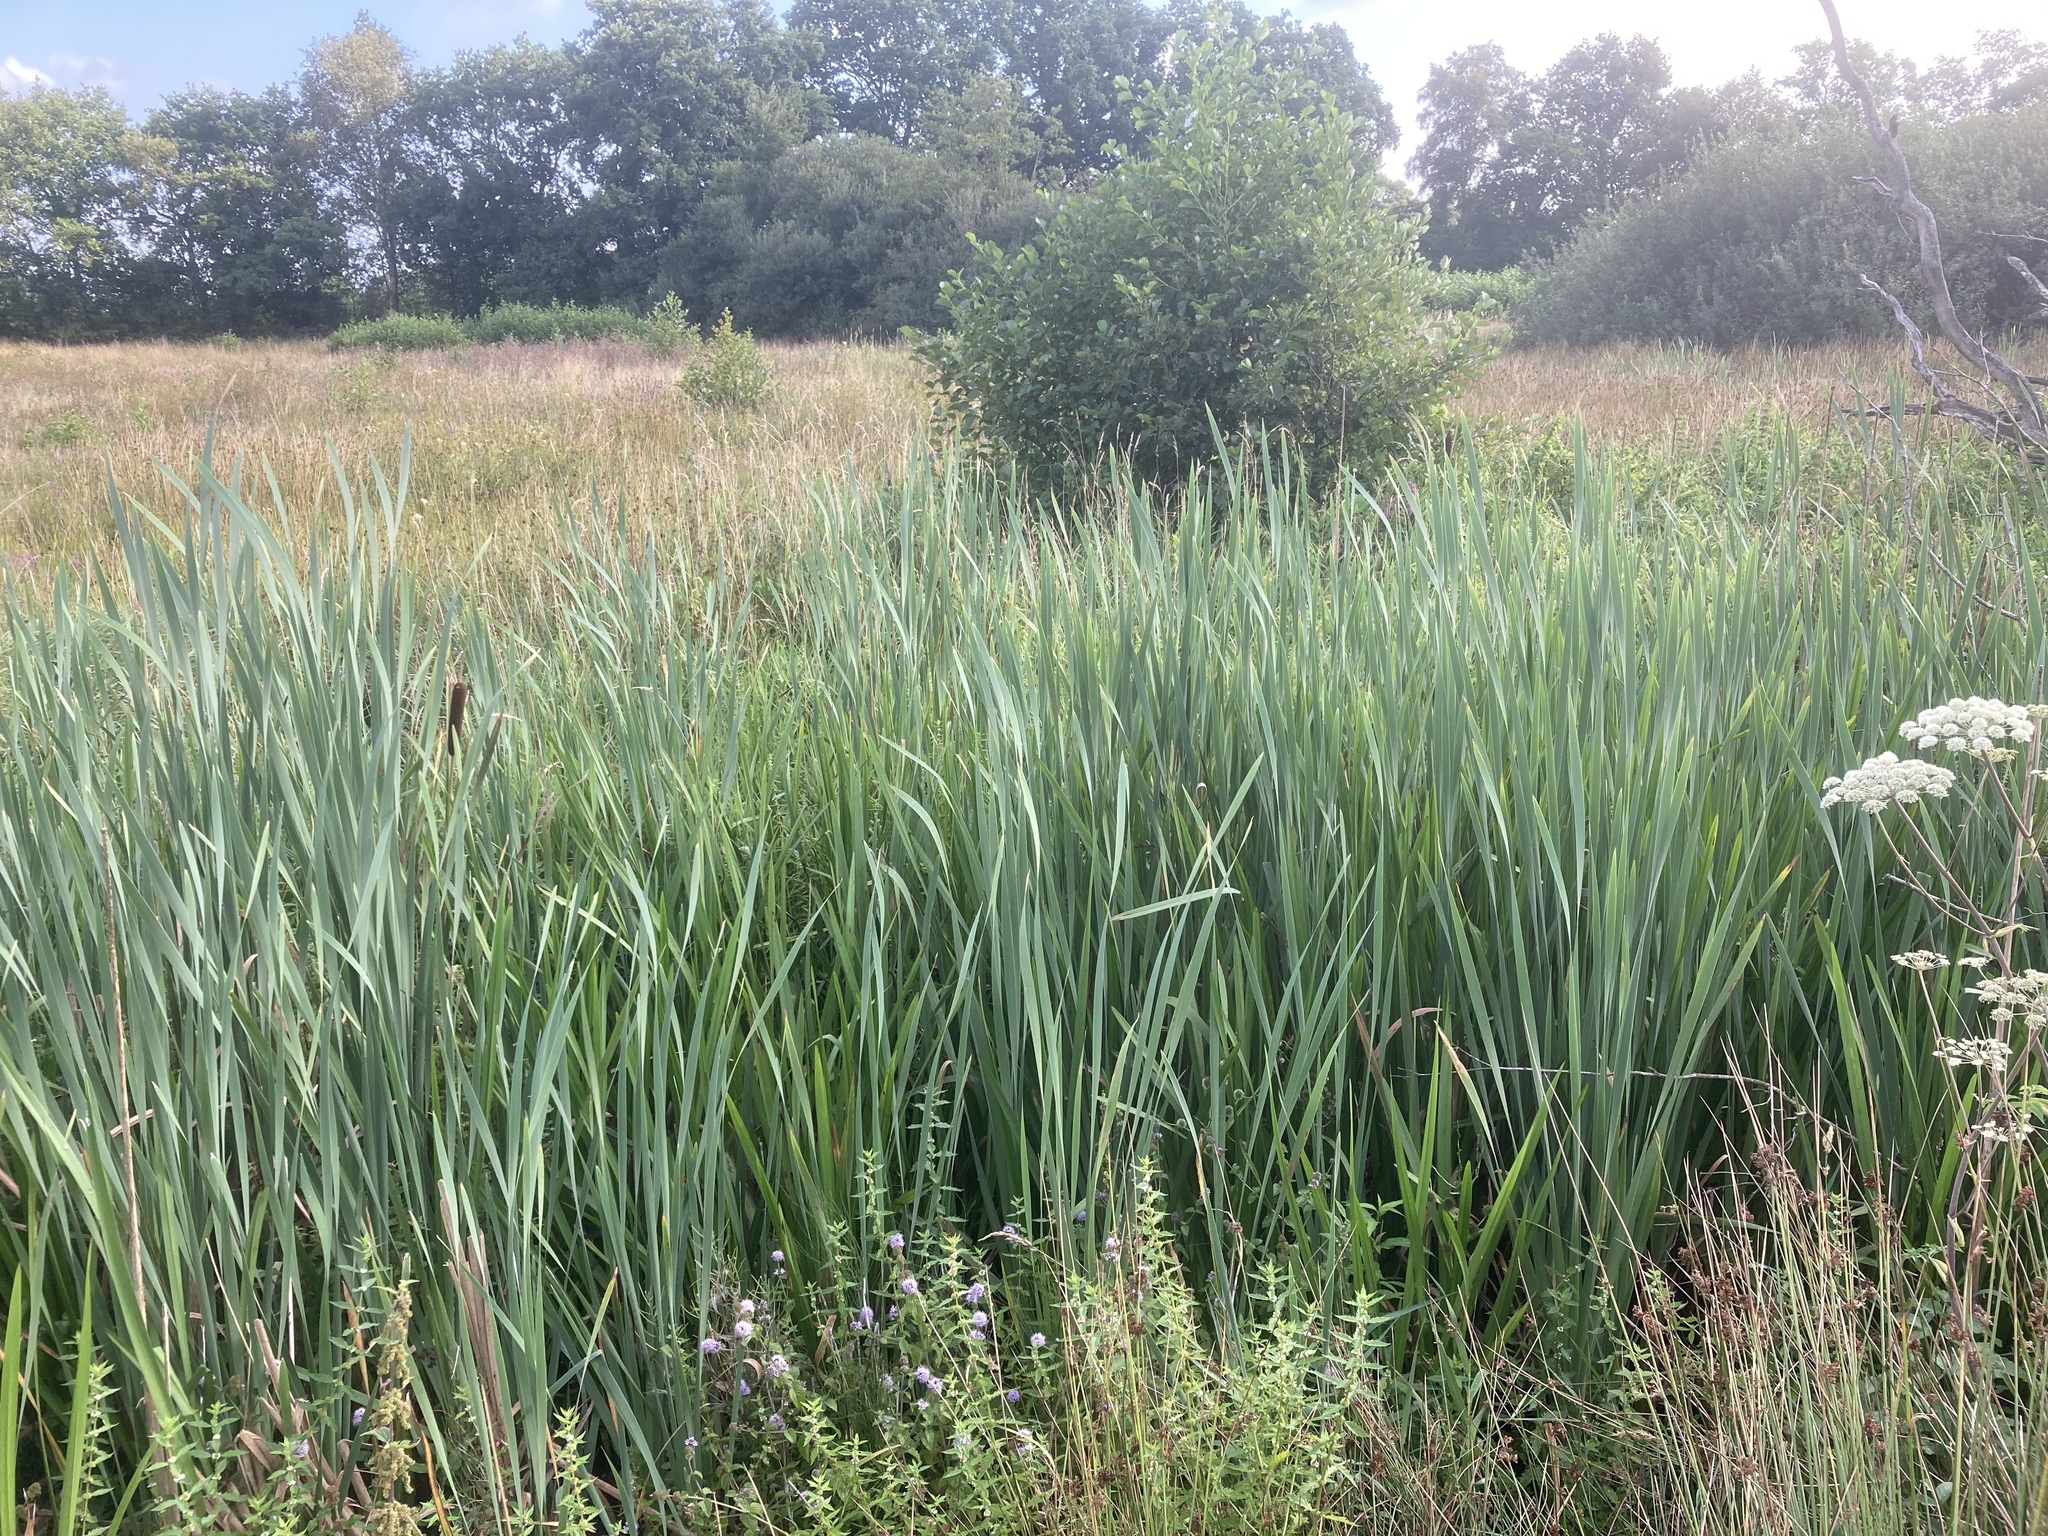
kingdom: Plantae
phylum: Tracheophyta
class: Liliopsida
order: Poales
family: Typhaceae
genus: Typha
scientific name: Typha latifolia
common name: Broadleaf cattail
